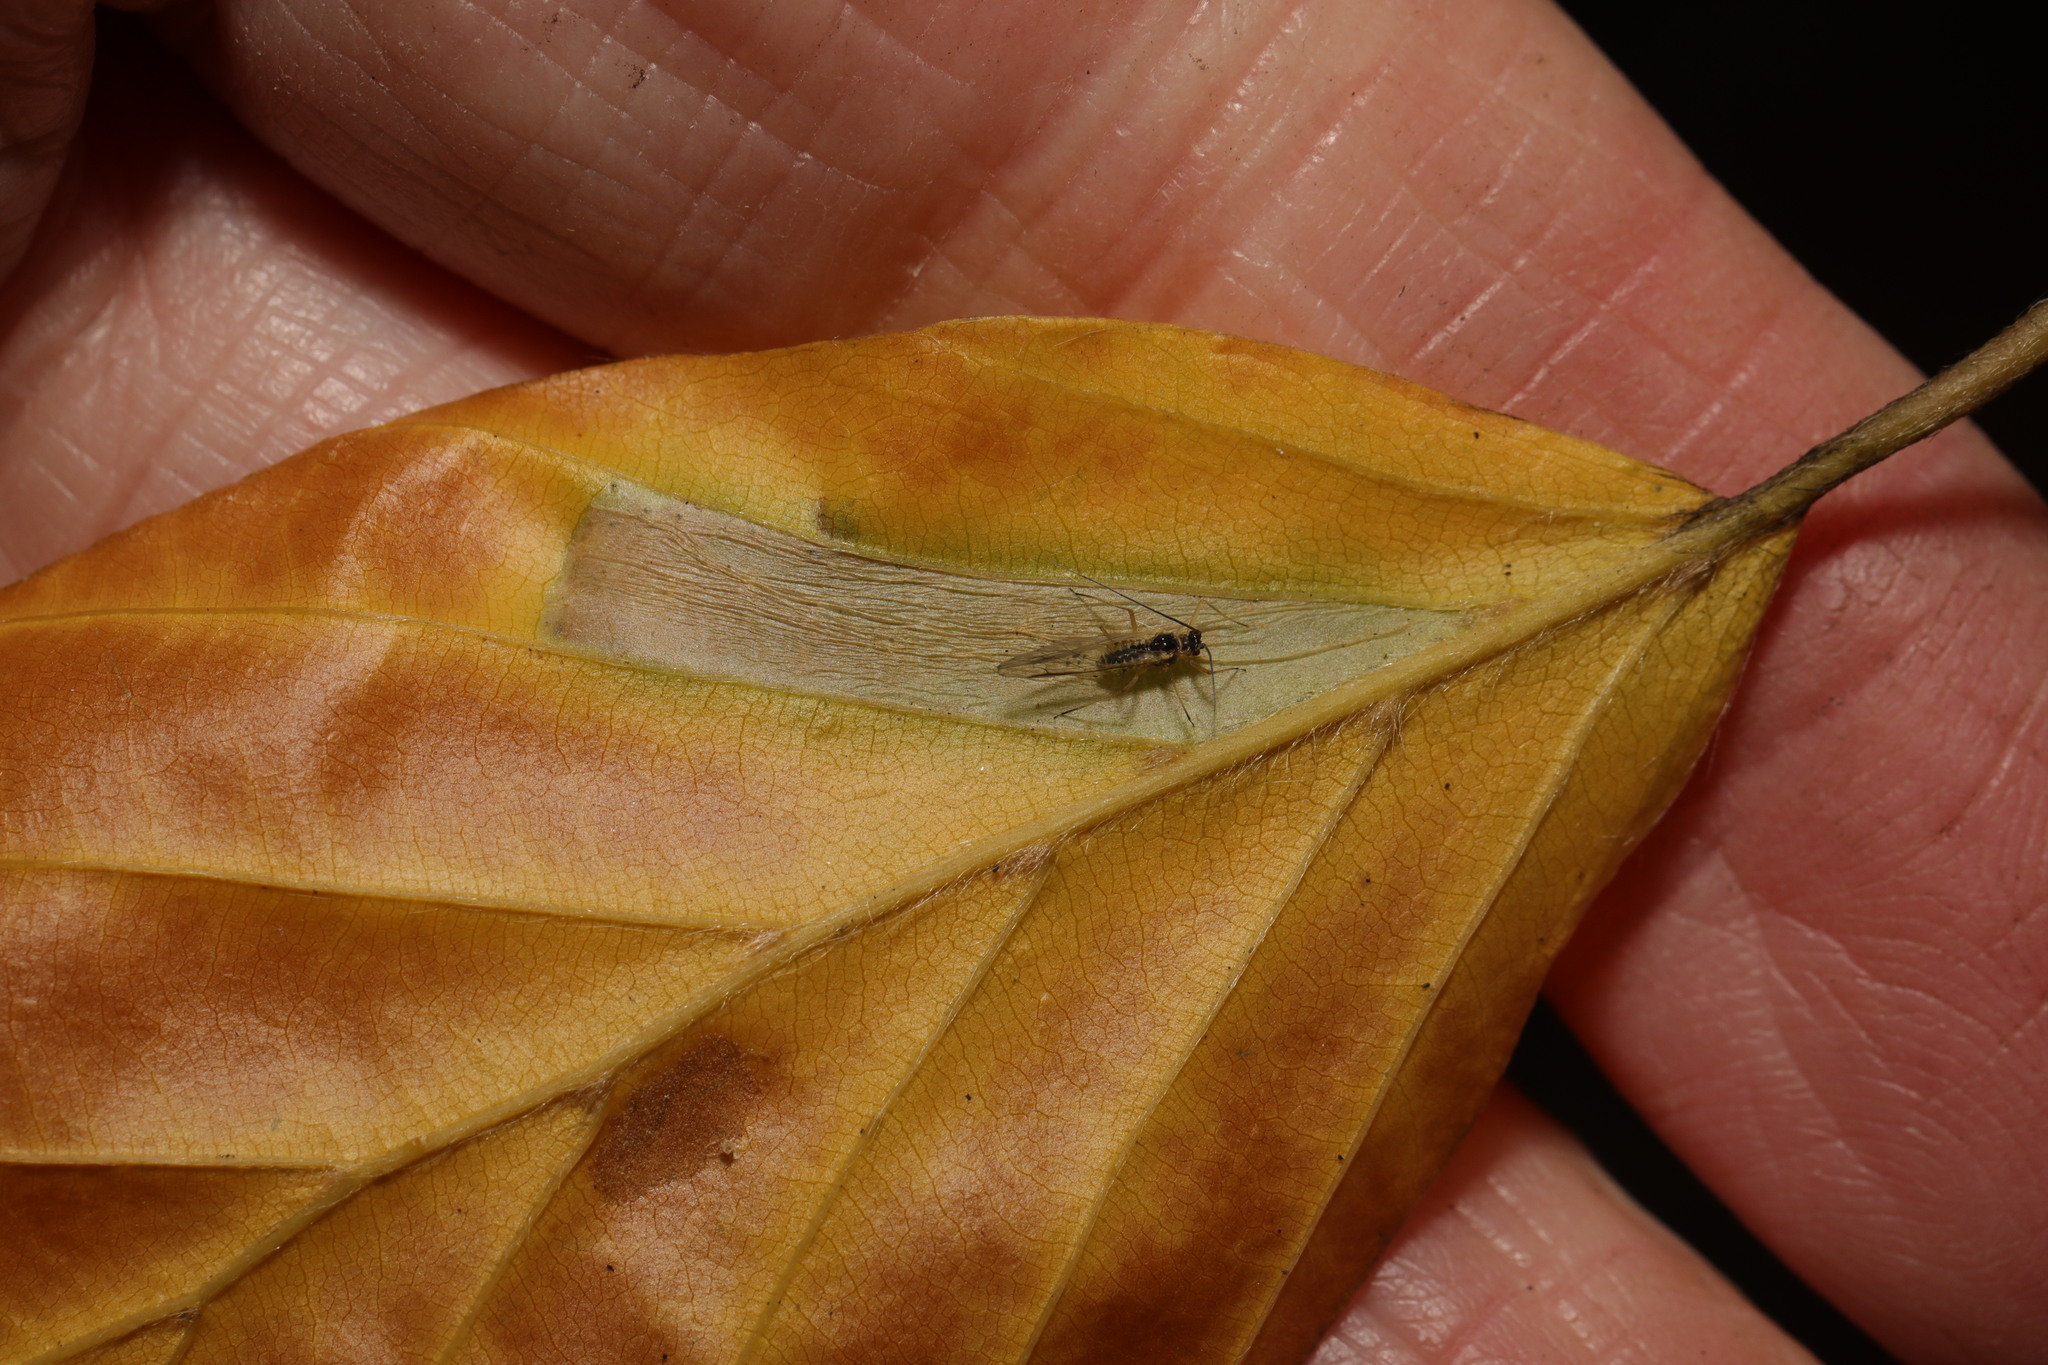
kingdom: Animalia
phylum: Arthropoda
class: Insecta
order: Lepidoptera
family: Gracillariidae
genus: Phyllonorycter
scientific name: Phyllonorycter maestingella
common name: Beech midget
